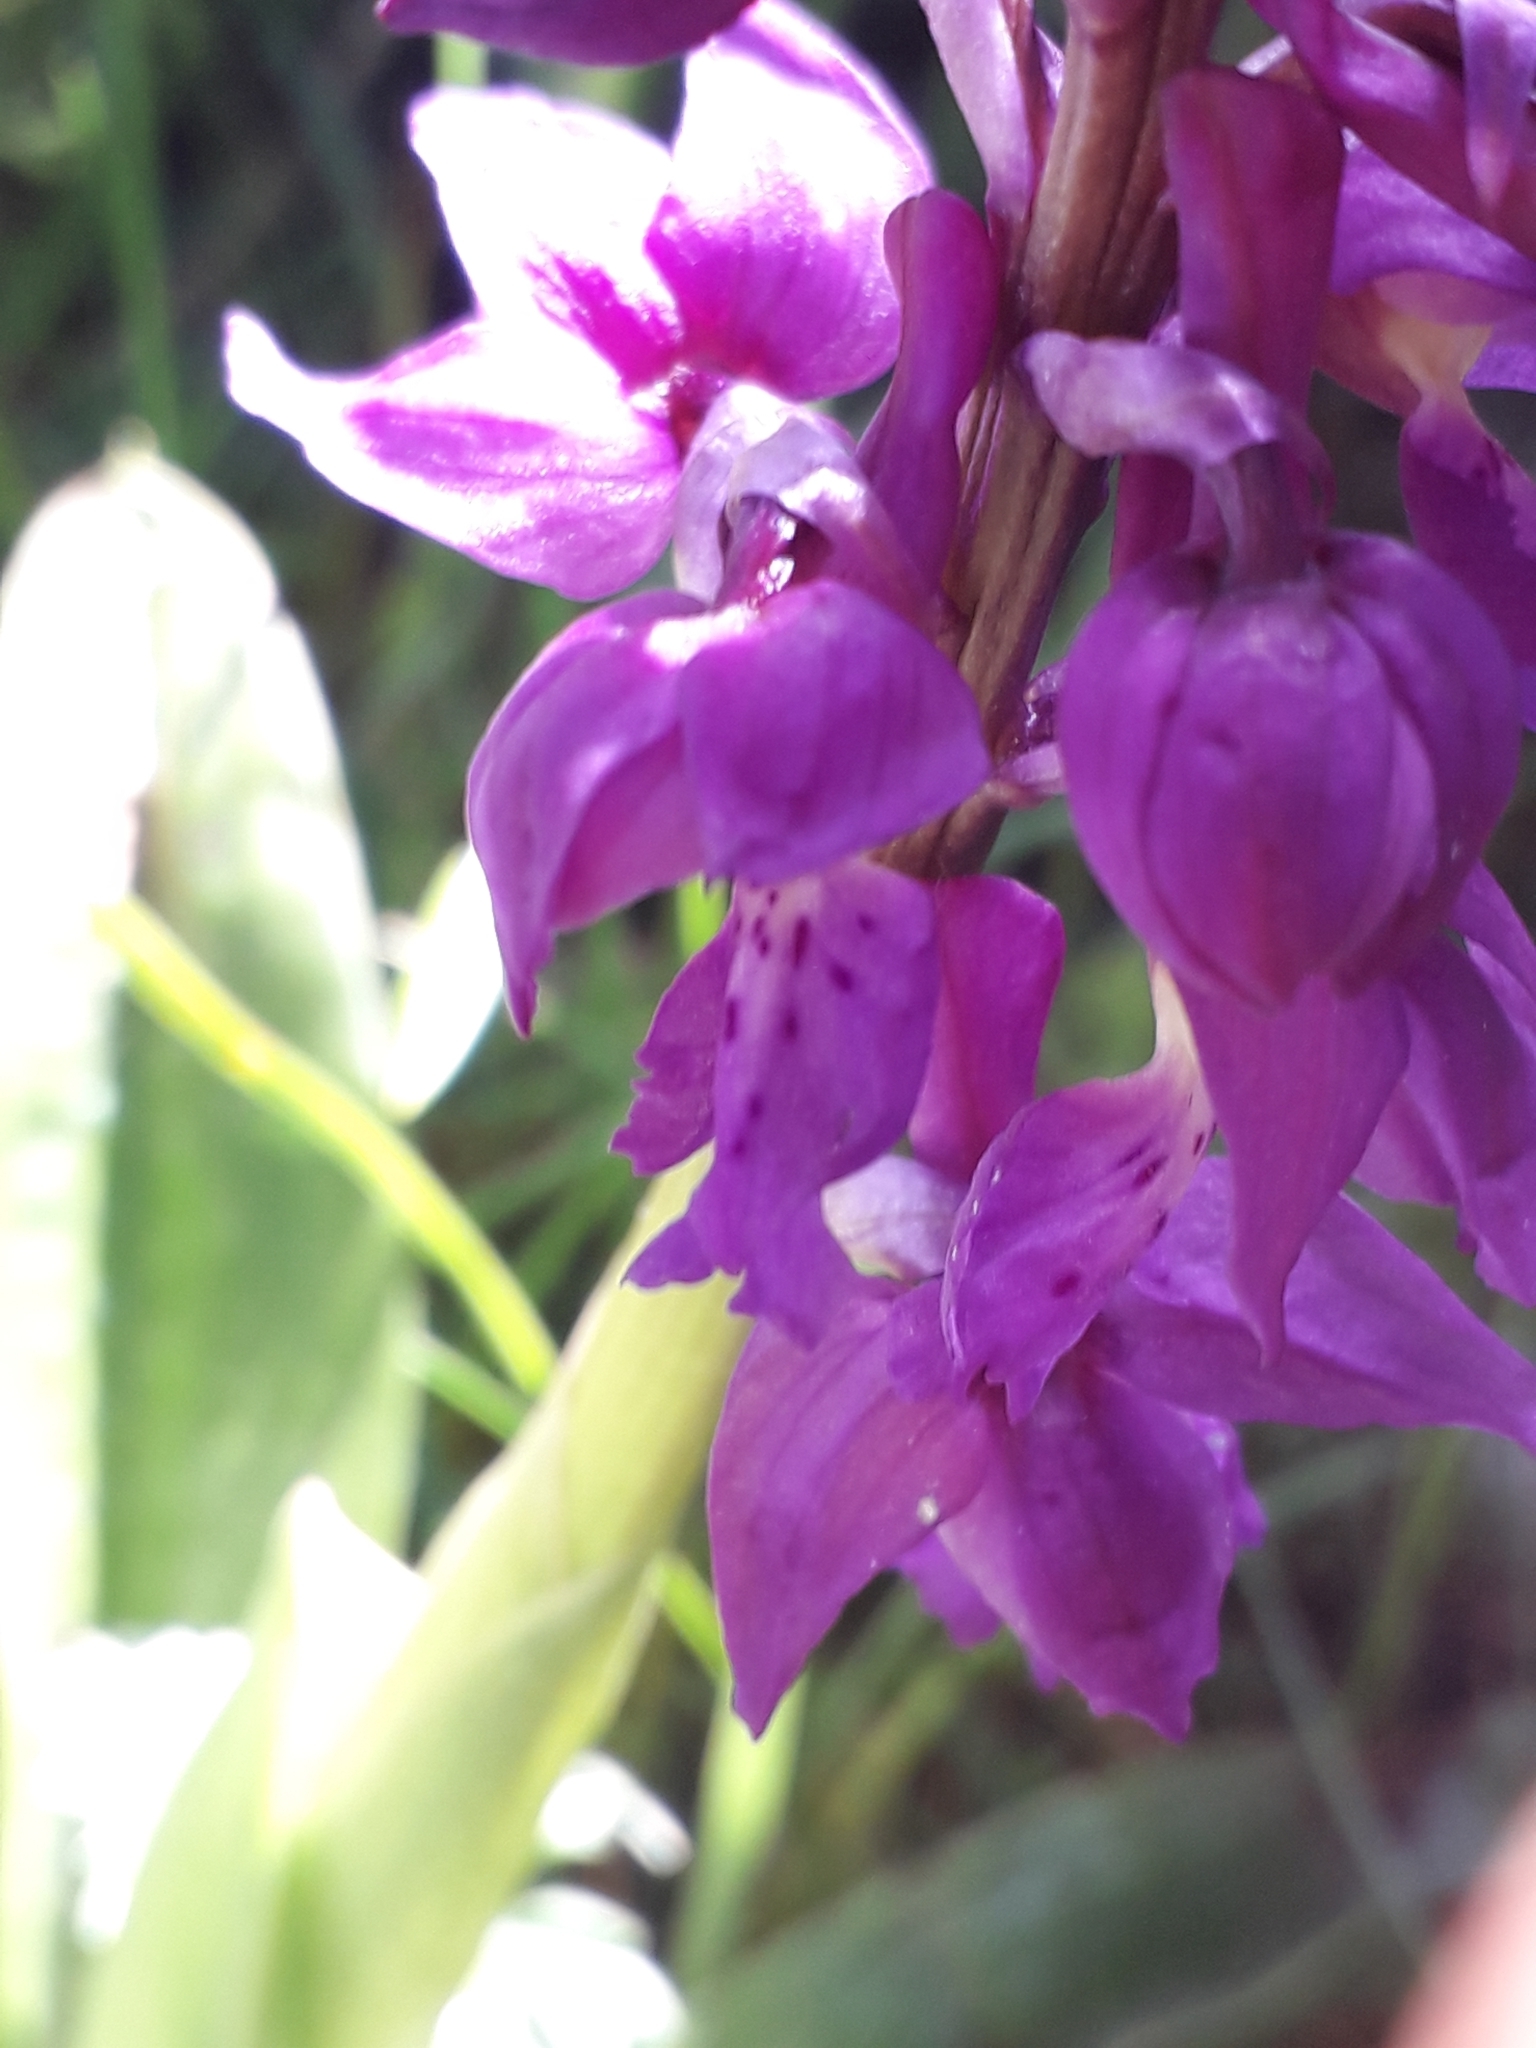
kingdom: Plantae
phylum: Tracheophyta
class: Liliopsida
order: Asparagales
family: Orchidaceae
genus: Orchis
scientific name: Orchis mascula
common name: Early-purple orchid
